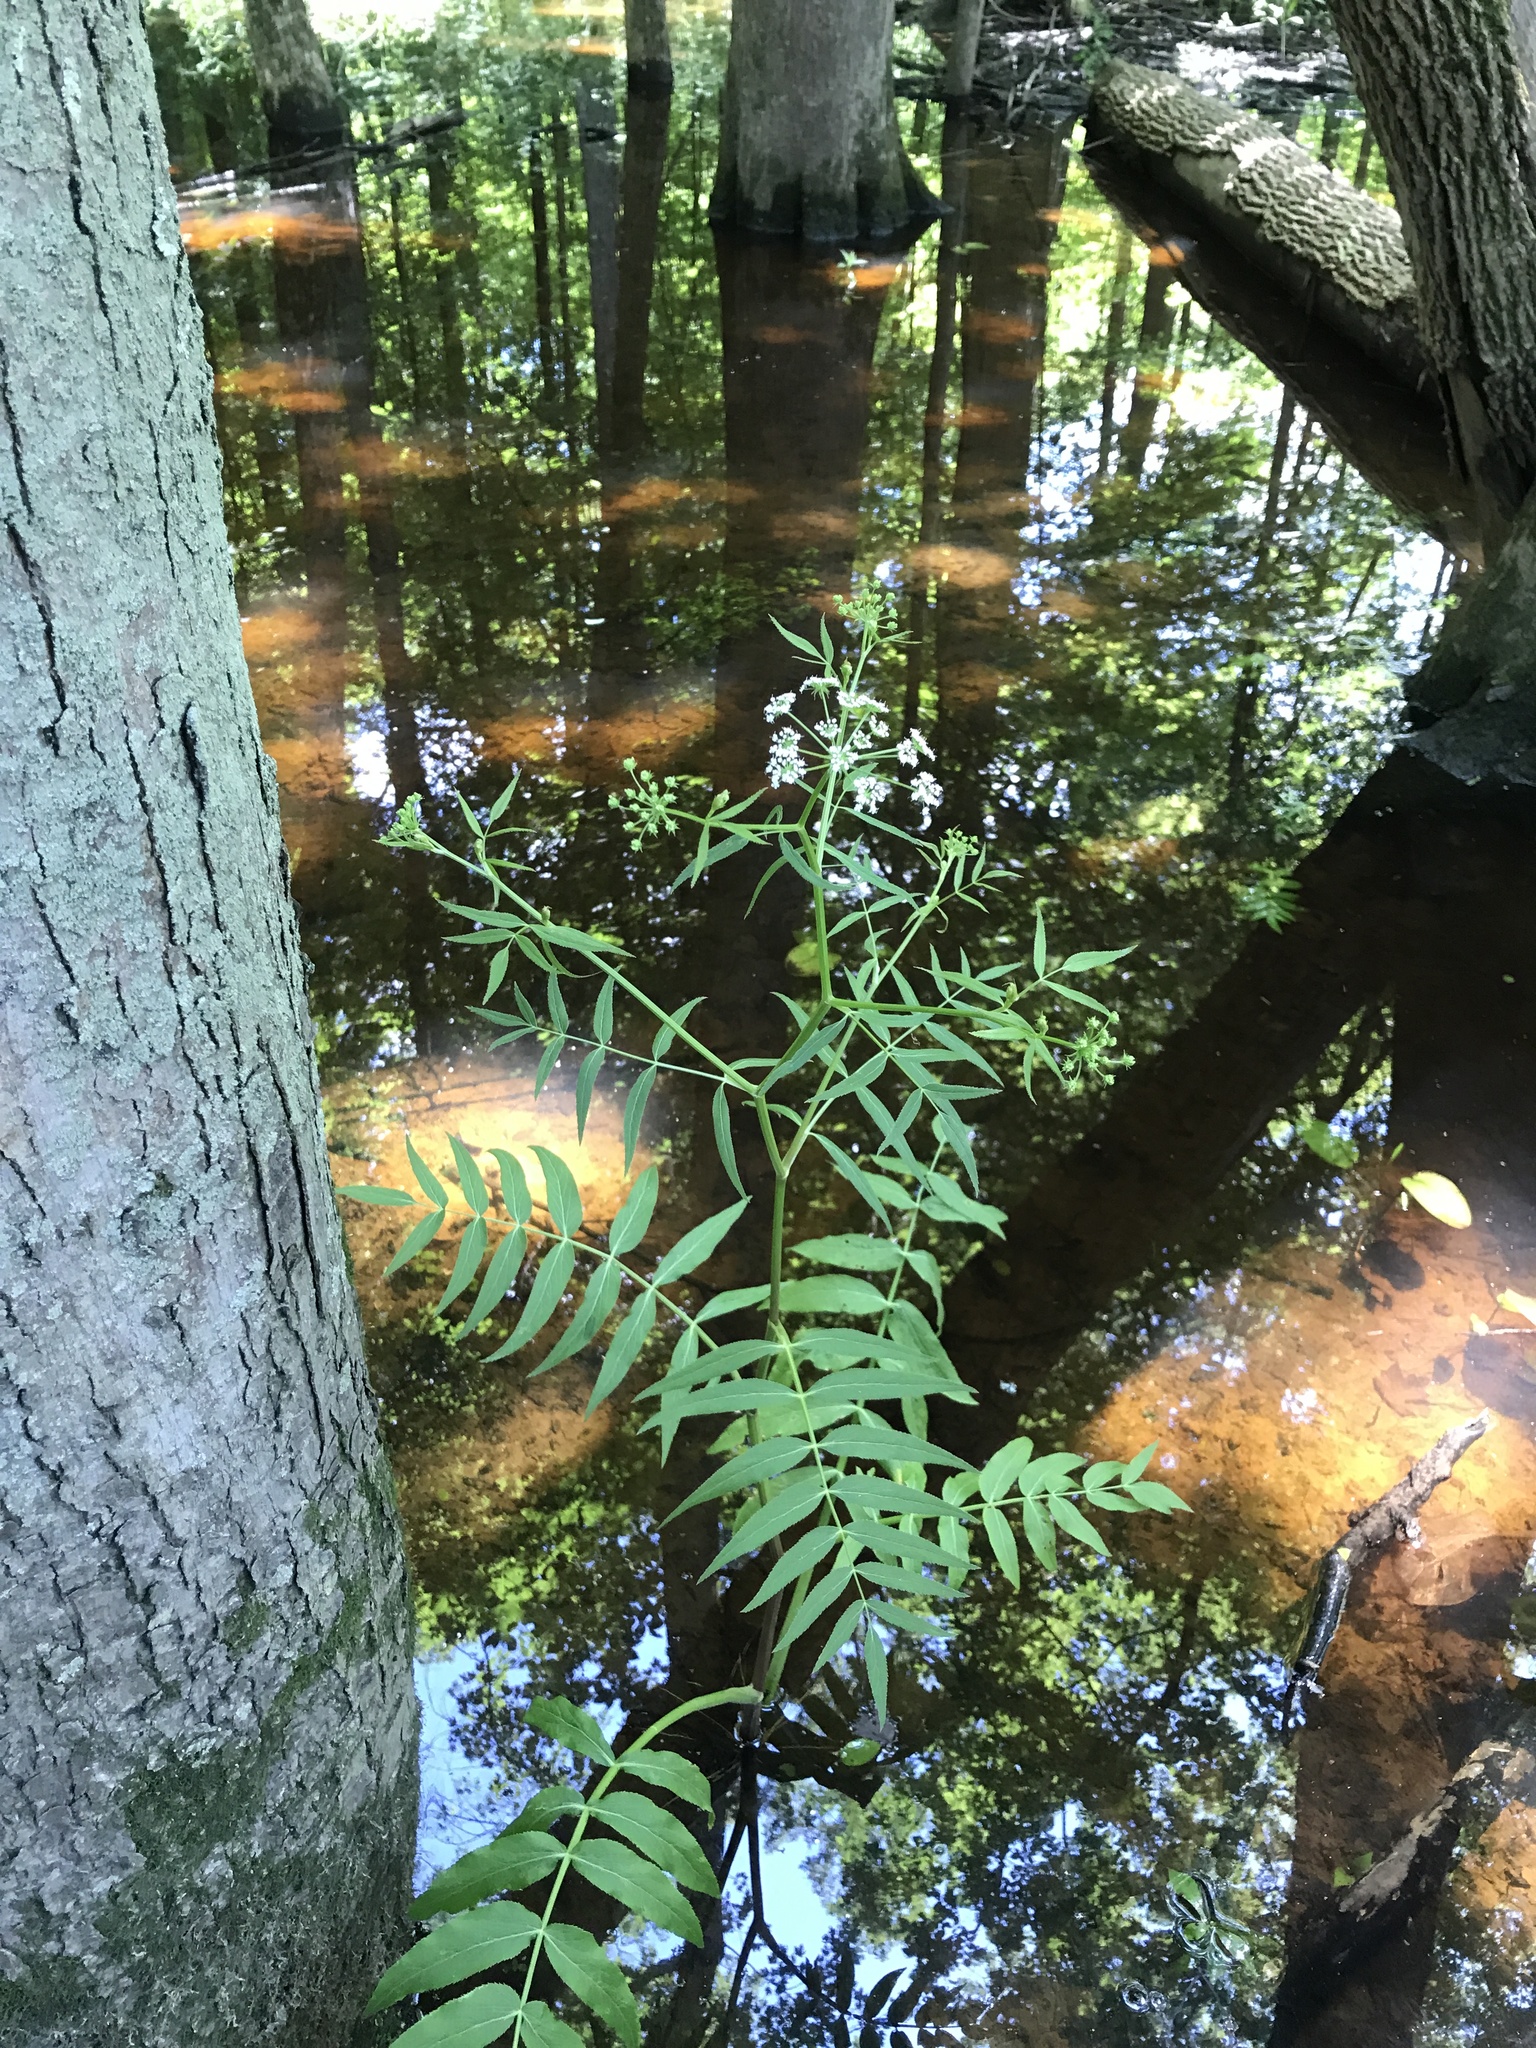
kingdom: Plantae
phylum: Tracheophyta
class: Magnoliopsida
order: Apiales
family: Apiaceae
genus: Sium
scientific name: Sium suave
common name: Hemlock water-parsnip
